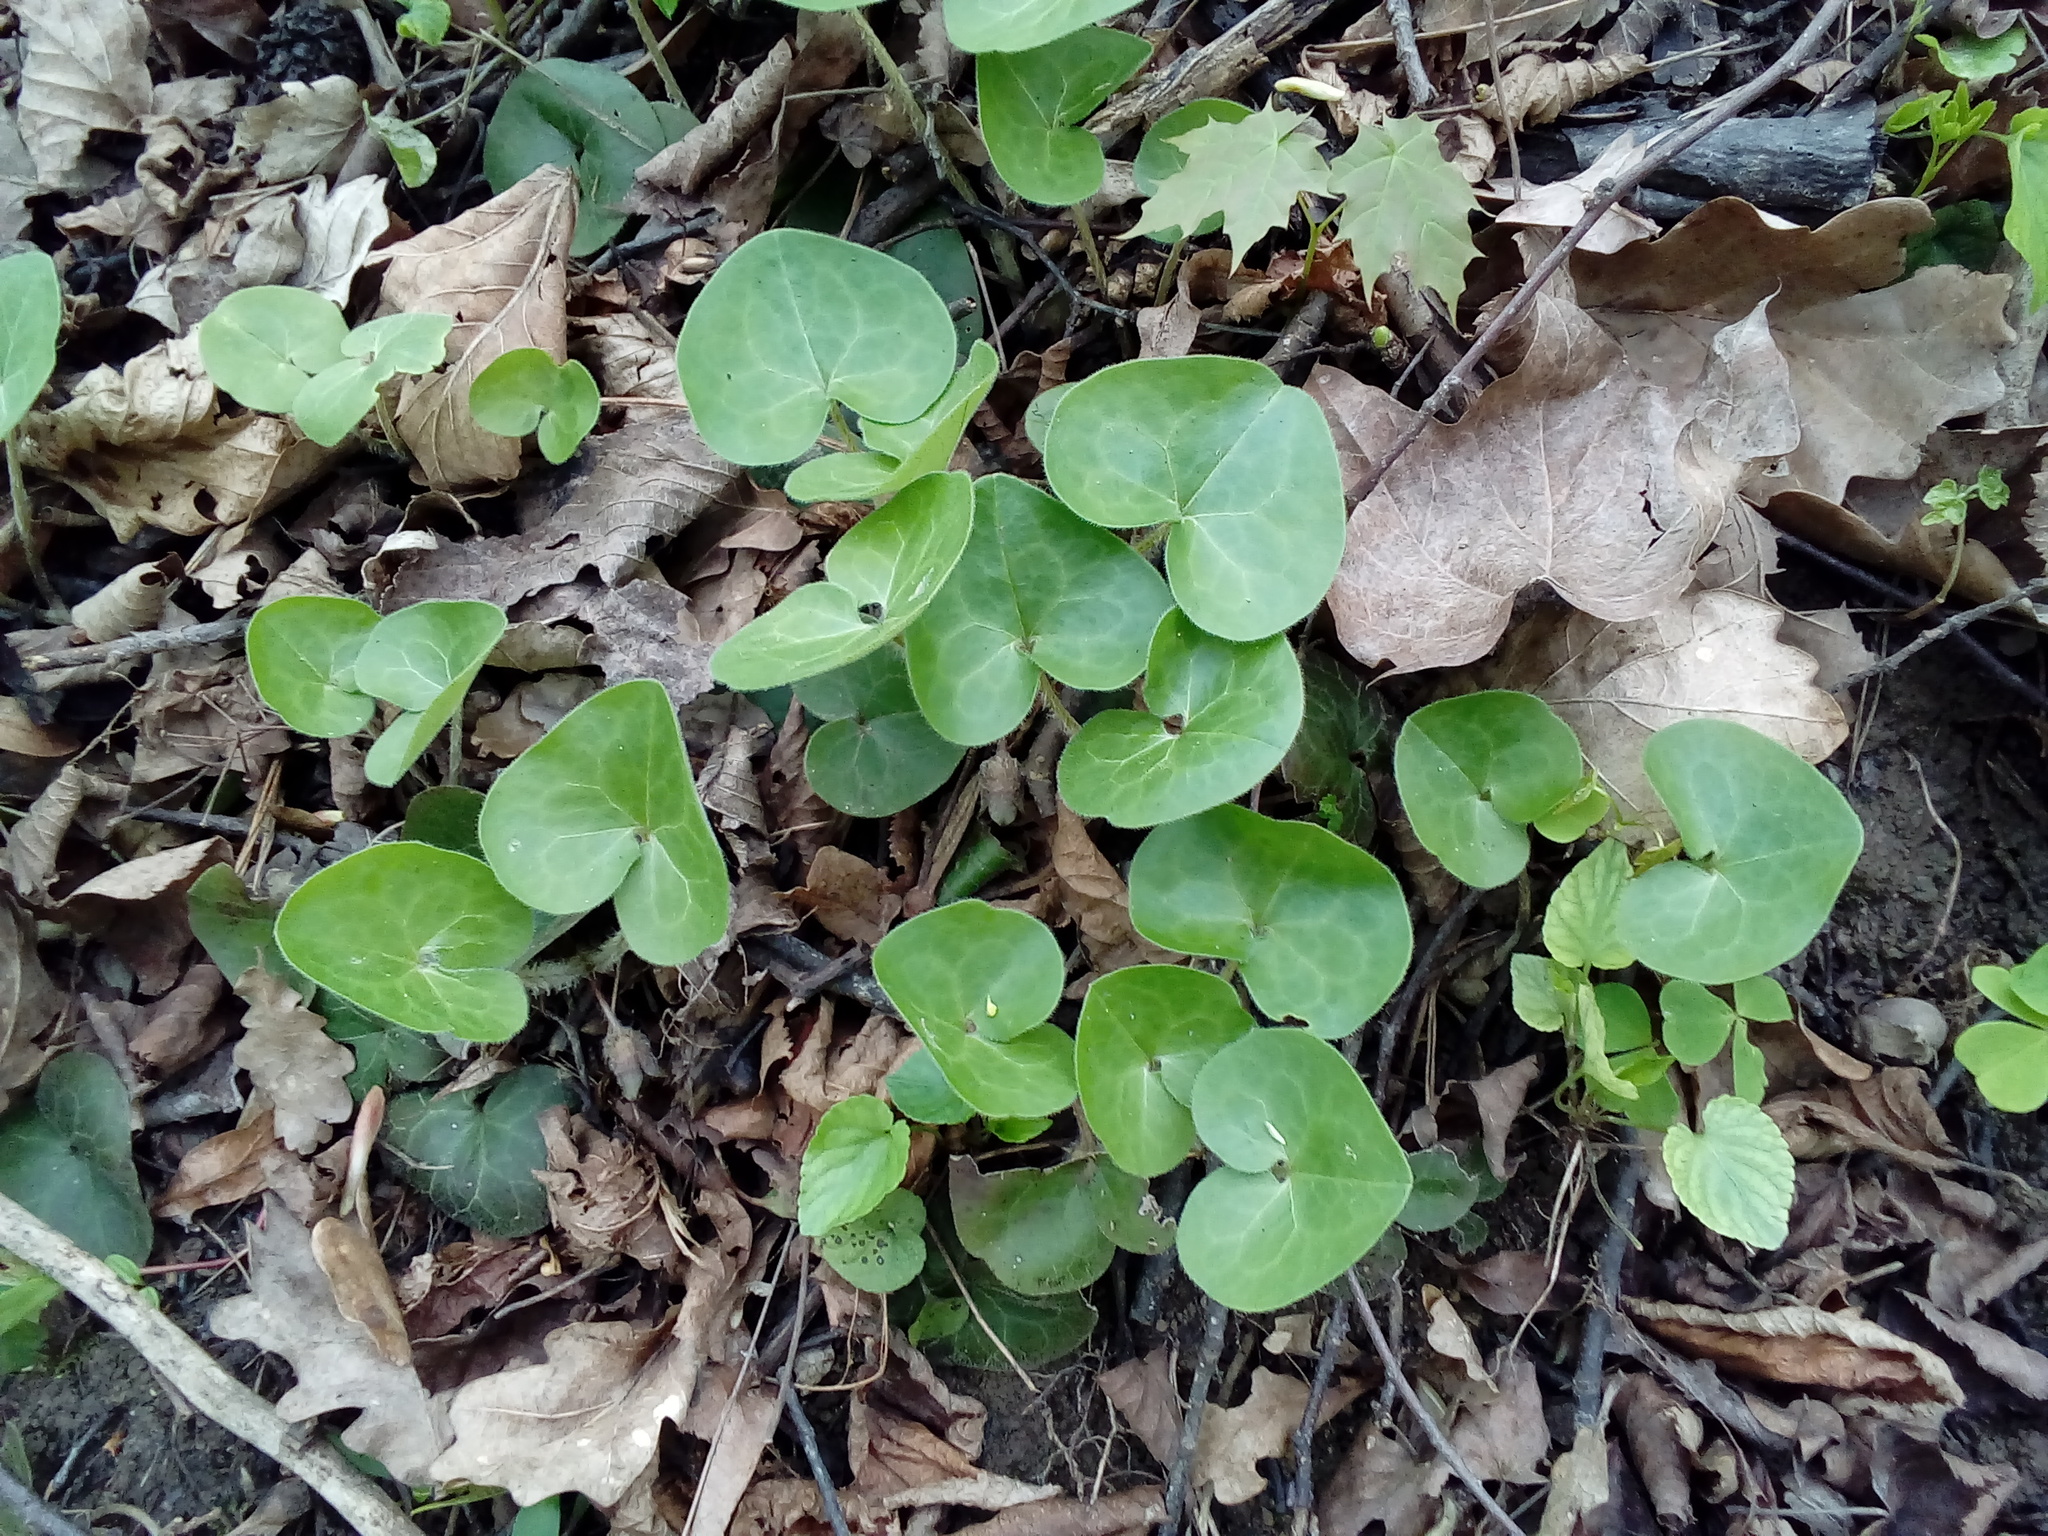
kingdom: Plantae
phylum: Tracheophyta
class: Magnoliopsida
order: Piperales
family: Aristolochiaceae
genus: Asarum
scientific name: Asarum europaeum
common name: Asarabacca
